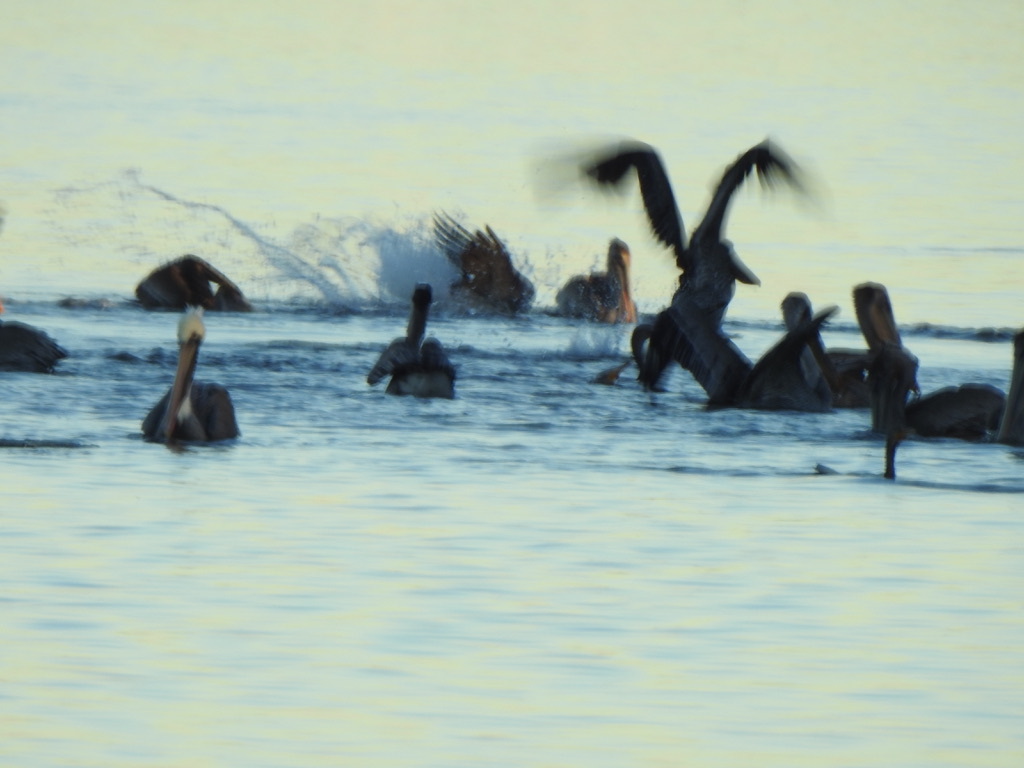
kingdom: Animalia
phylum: Chordata
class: Aves
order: Pelecaniformes
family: Pelecanidae
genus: Pelecanus
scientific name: Pelecanus occidentalis
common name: Brown pelican
